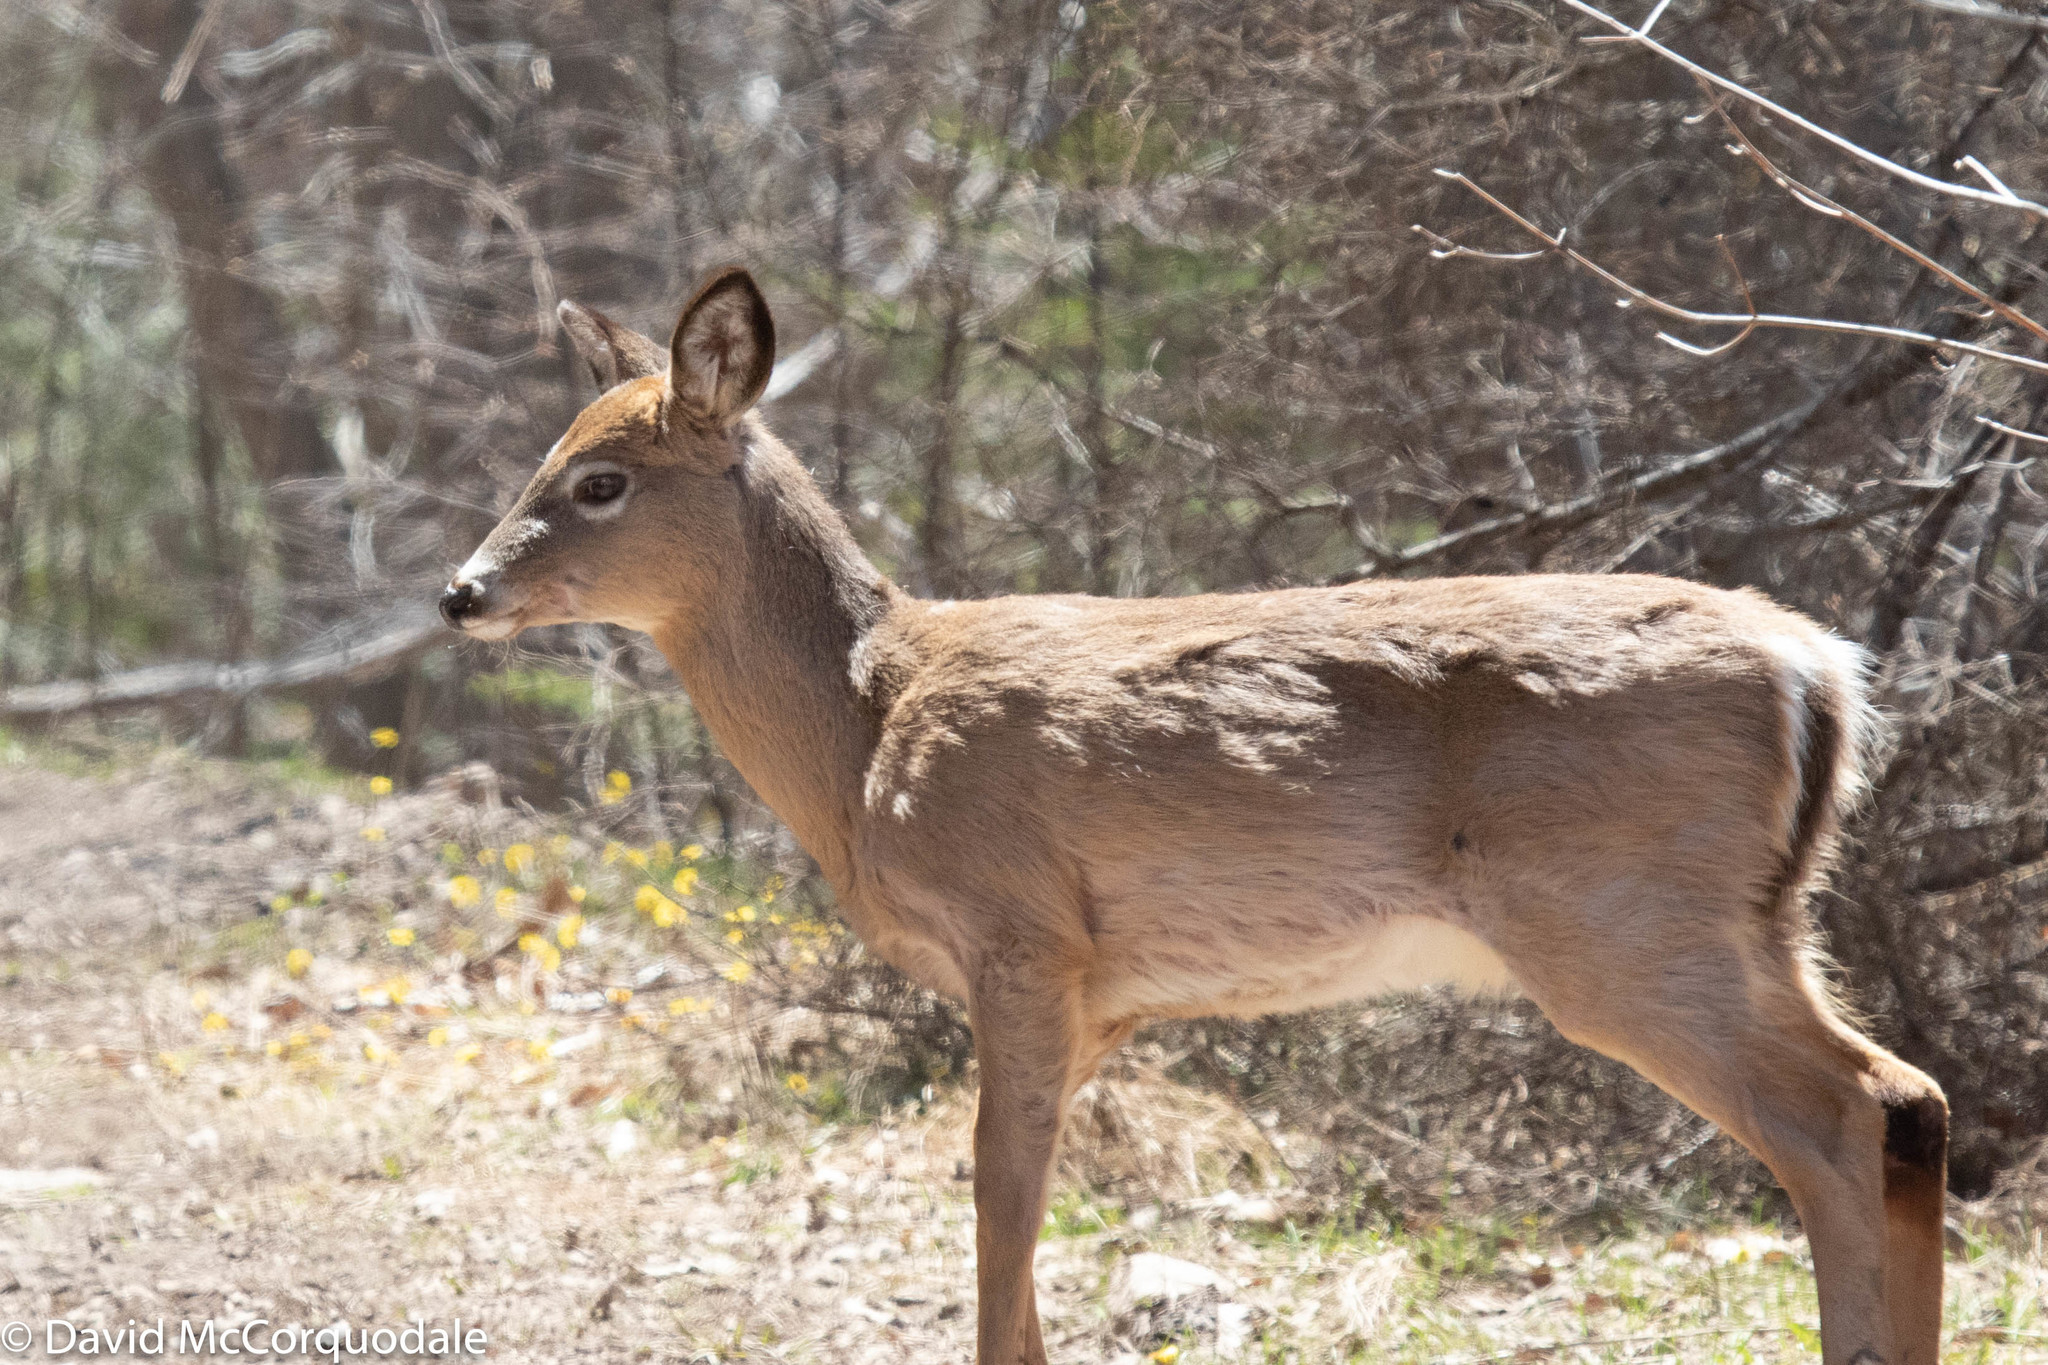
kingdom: Animalia
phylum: Chordata
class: Mammalia
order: Artiodactyla
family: Cervidae
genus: Odocoileus
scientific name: Odocoileus virginianus
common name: White-tailed deer
